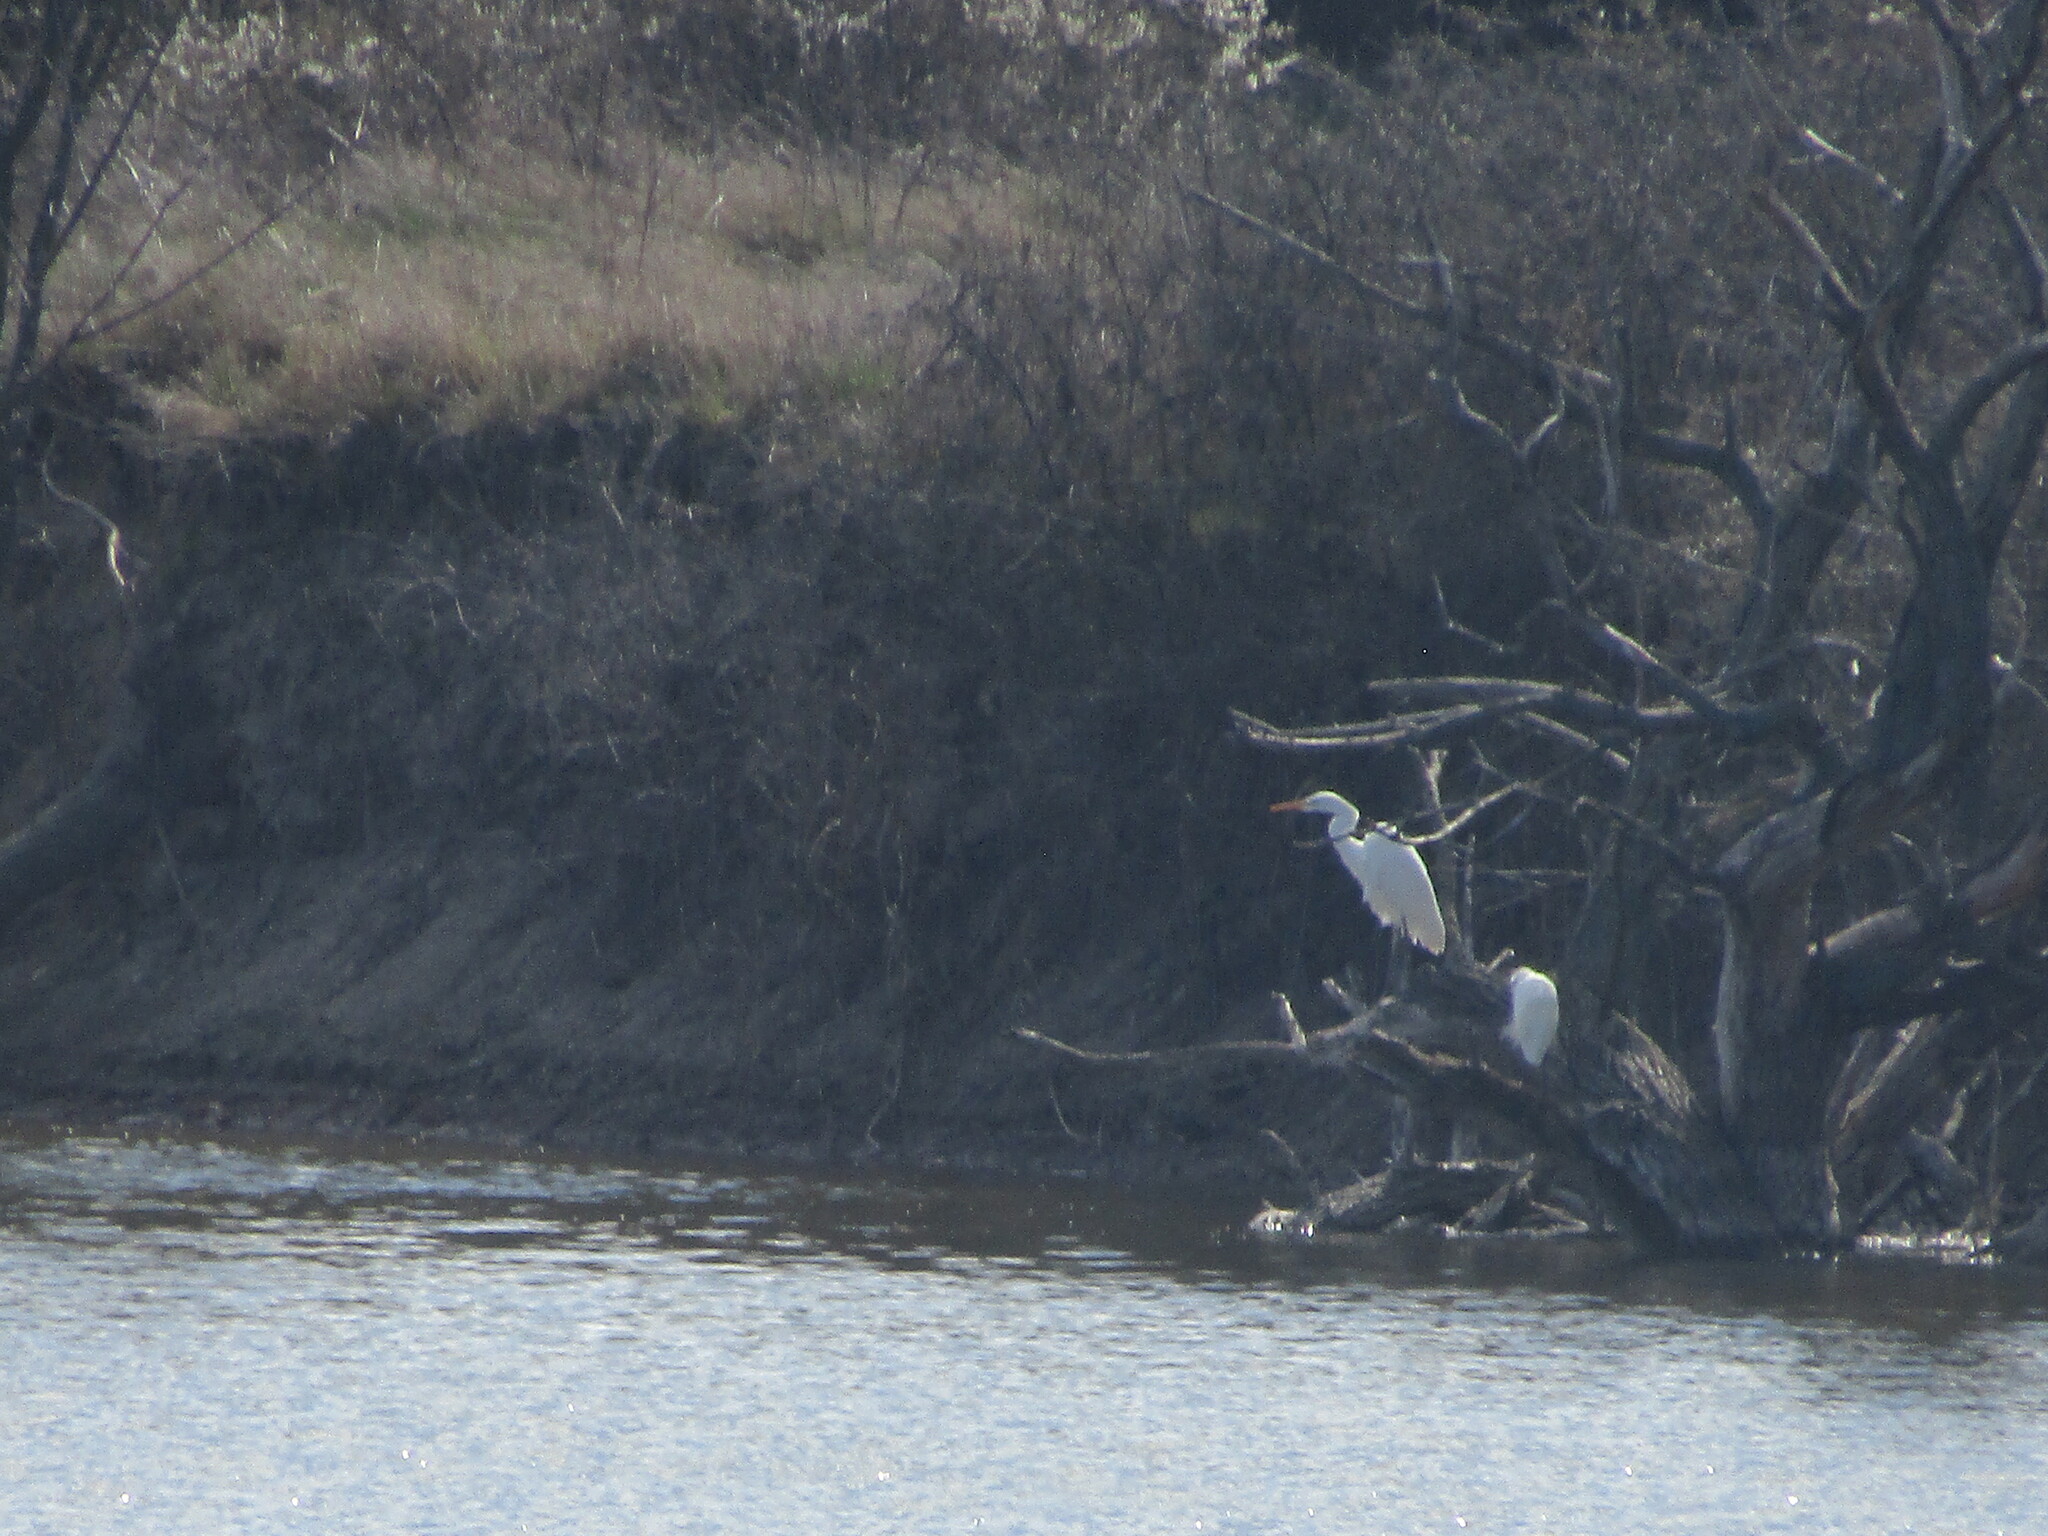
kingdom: Animalia
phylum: Chordata
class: Aves
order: Pelecaniformes
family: Ardeidae
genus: Ardea
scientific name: Ardea alba
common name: Great egret
